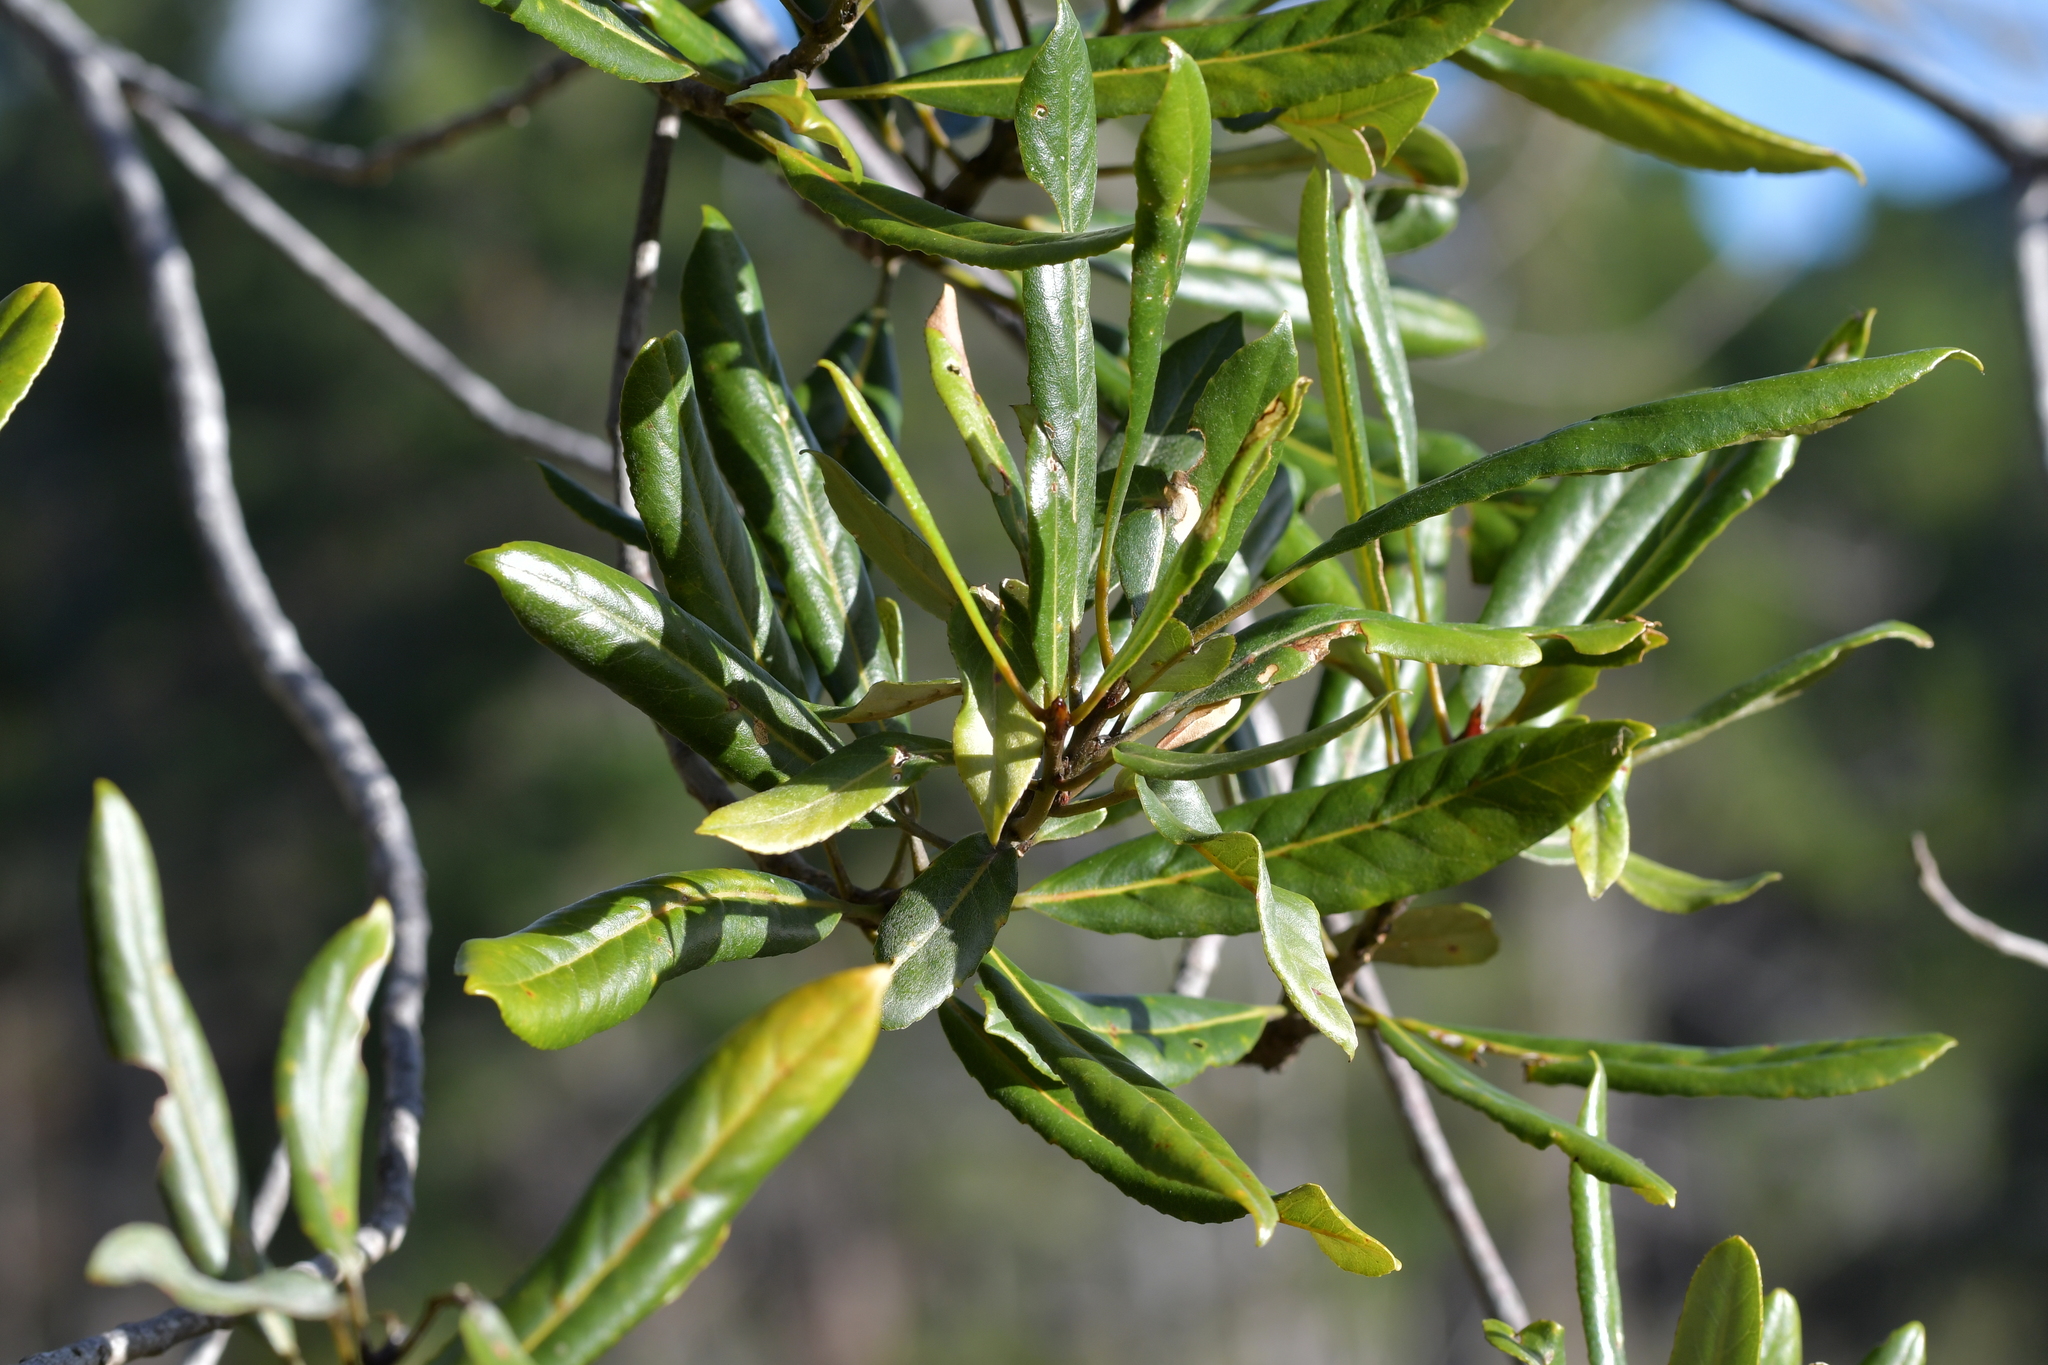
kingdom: Plantae
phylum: Tracheophyta
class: Magnoliopsida
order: Oxalidales
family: Elaeocarpaceae
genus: Elaeocarpus
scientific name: Elaeocarpus dentatus
